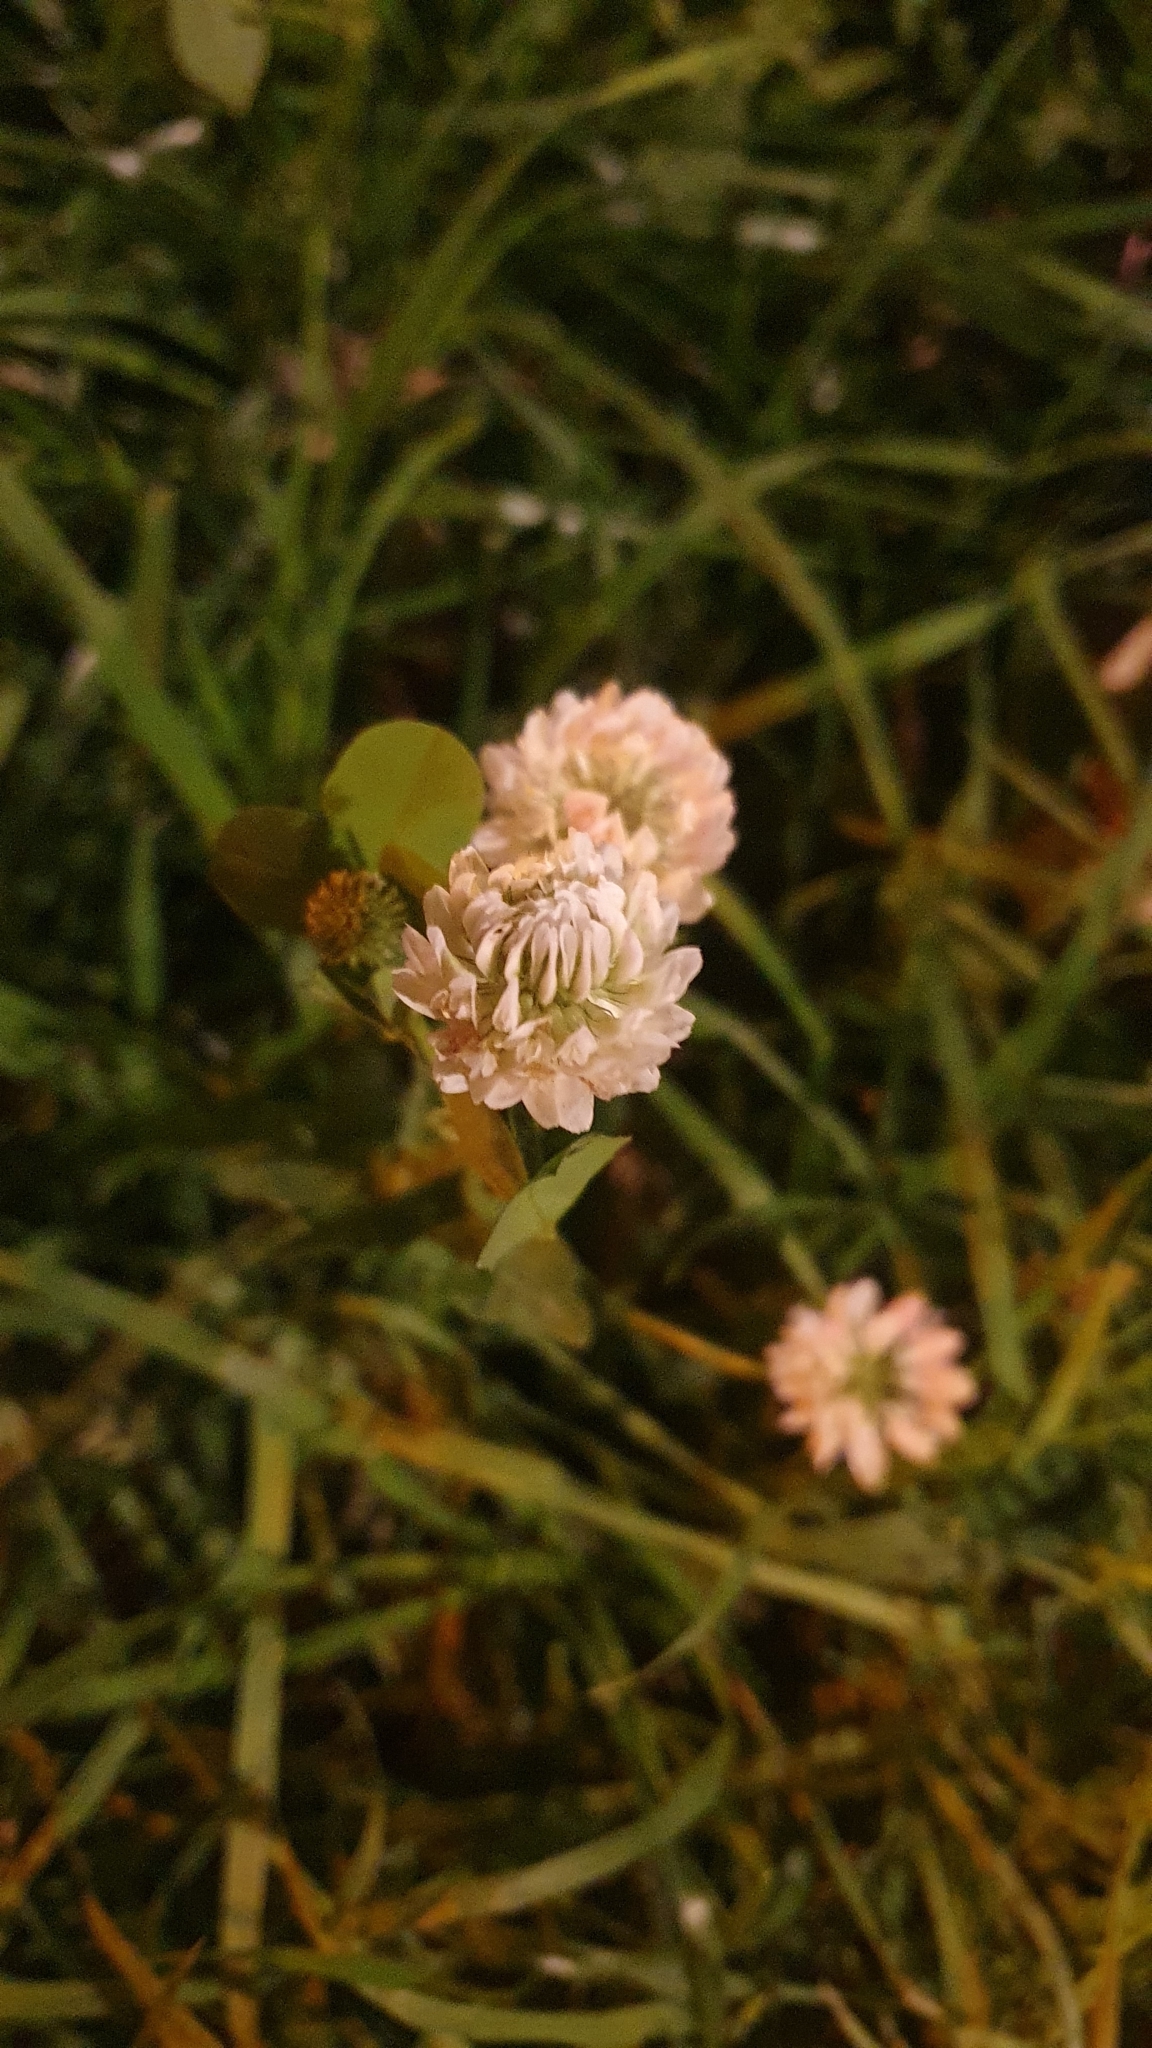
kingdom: Plantae
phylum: Tracheophyta
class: Magnoliopsida
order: Fabales
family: Fabaceae
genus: Trifolium
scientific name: Trifolium hybridum
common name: Alsike clover
